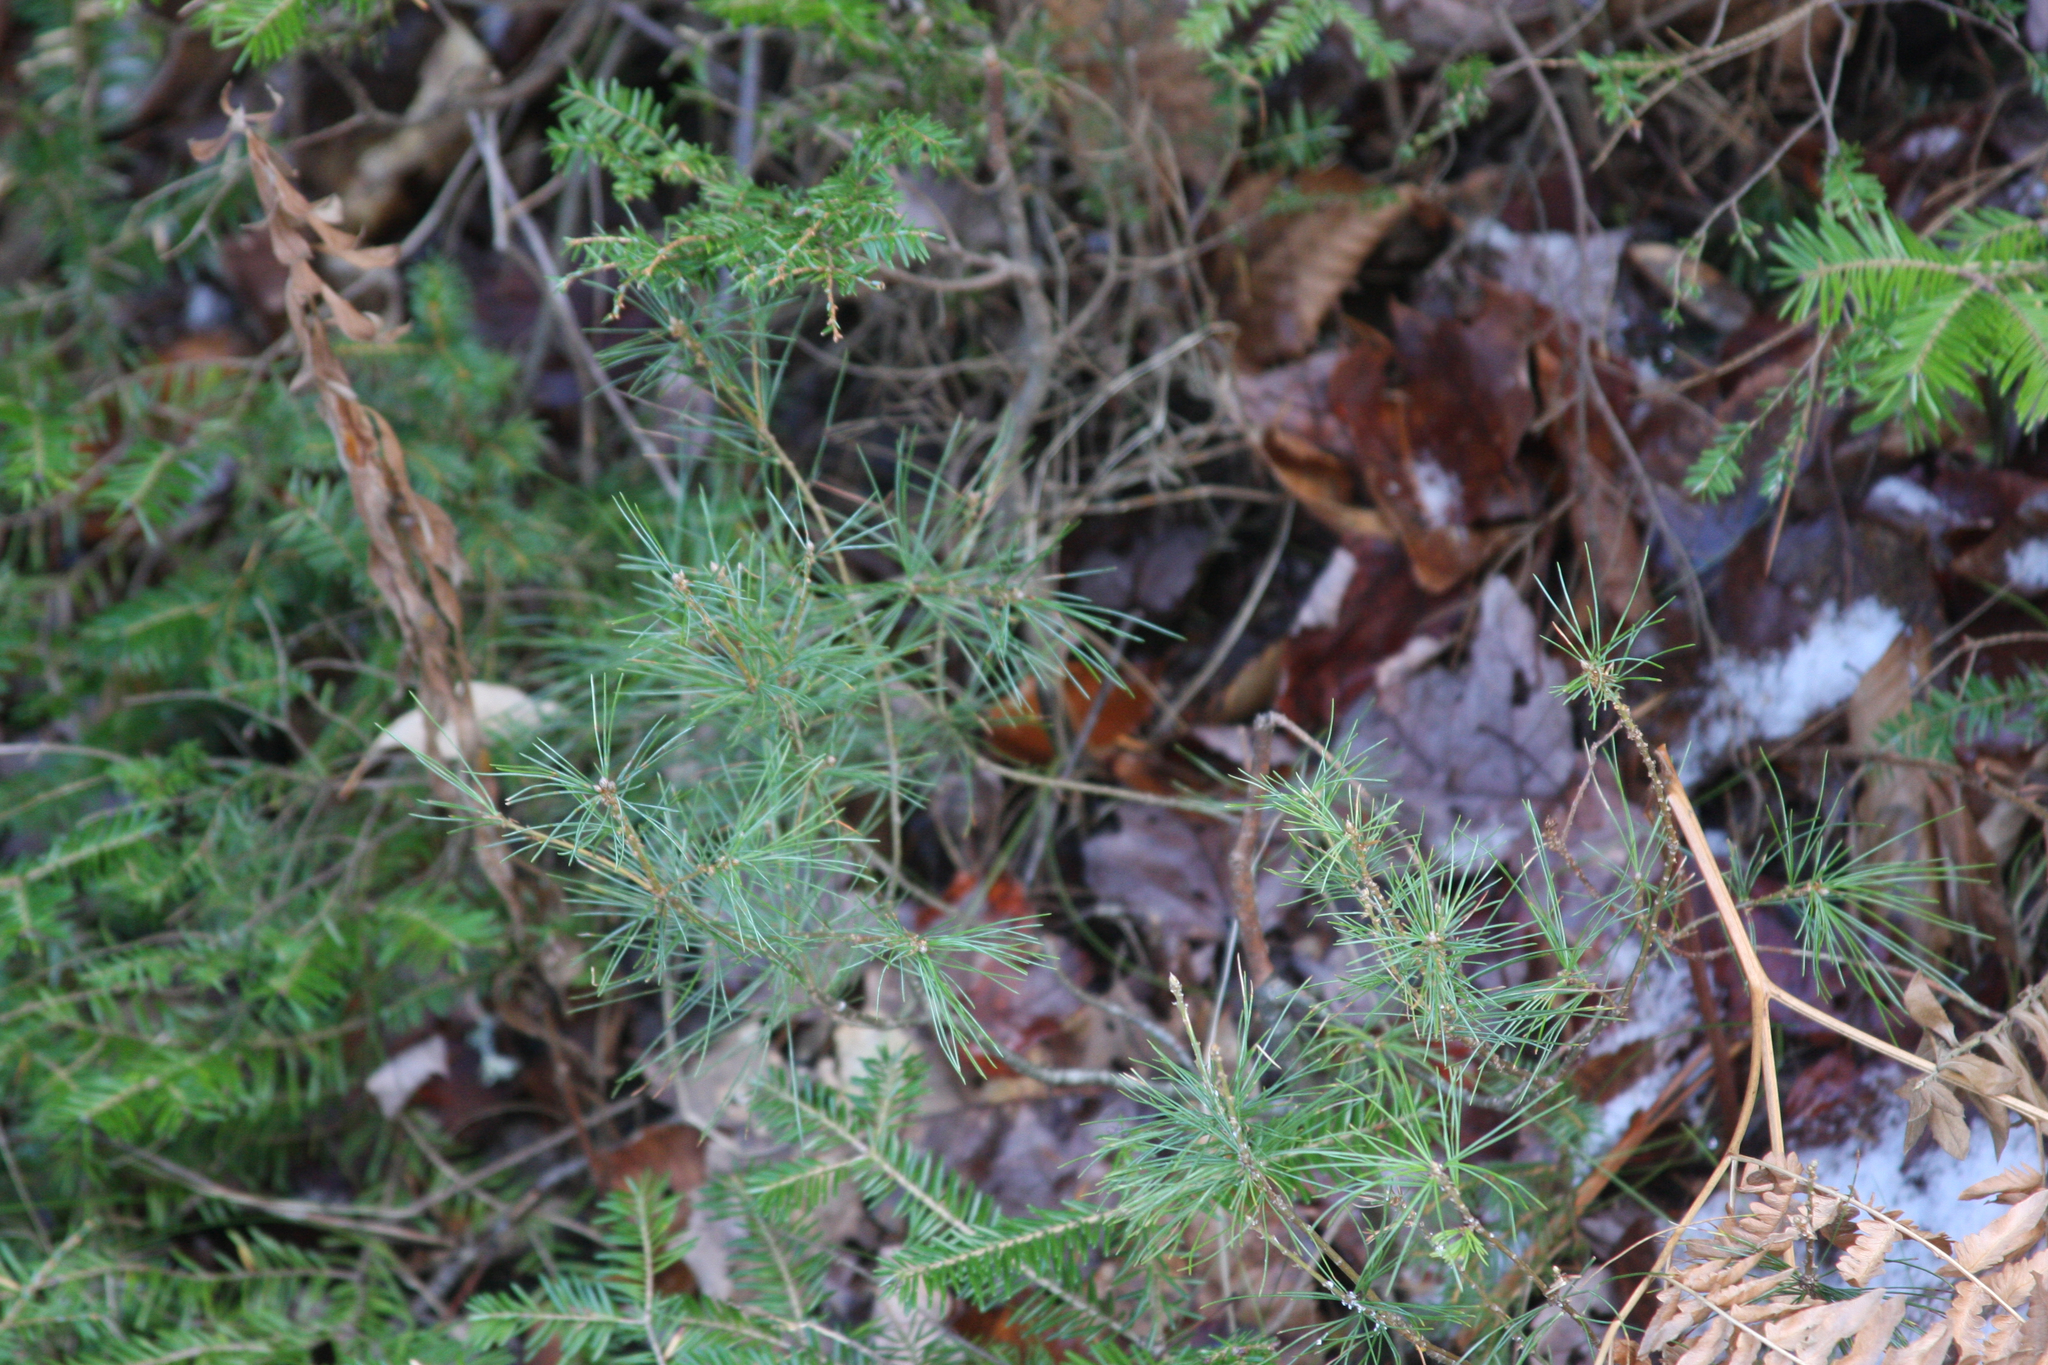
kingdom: Plantae
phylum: Tracheophyta
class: Pinopsida
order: Pinales
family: Pinaceae
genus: Pinus
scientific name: Pinus strobus
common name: Weymouth pine
